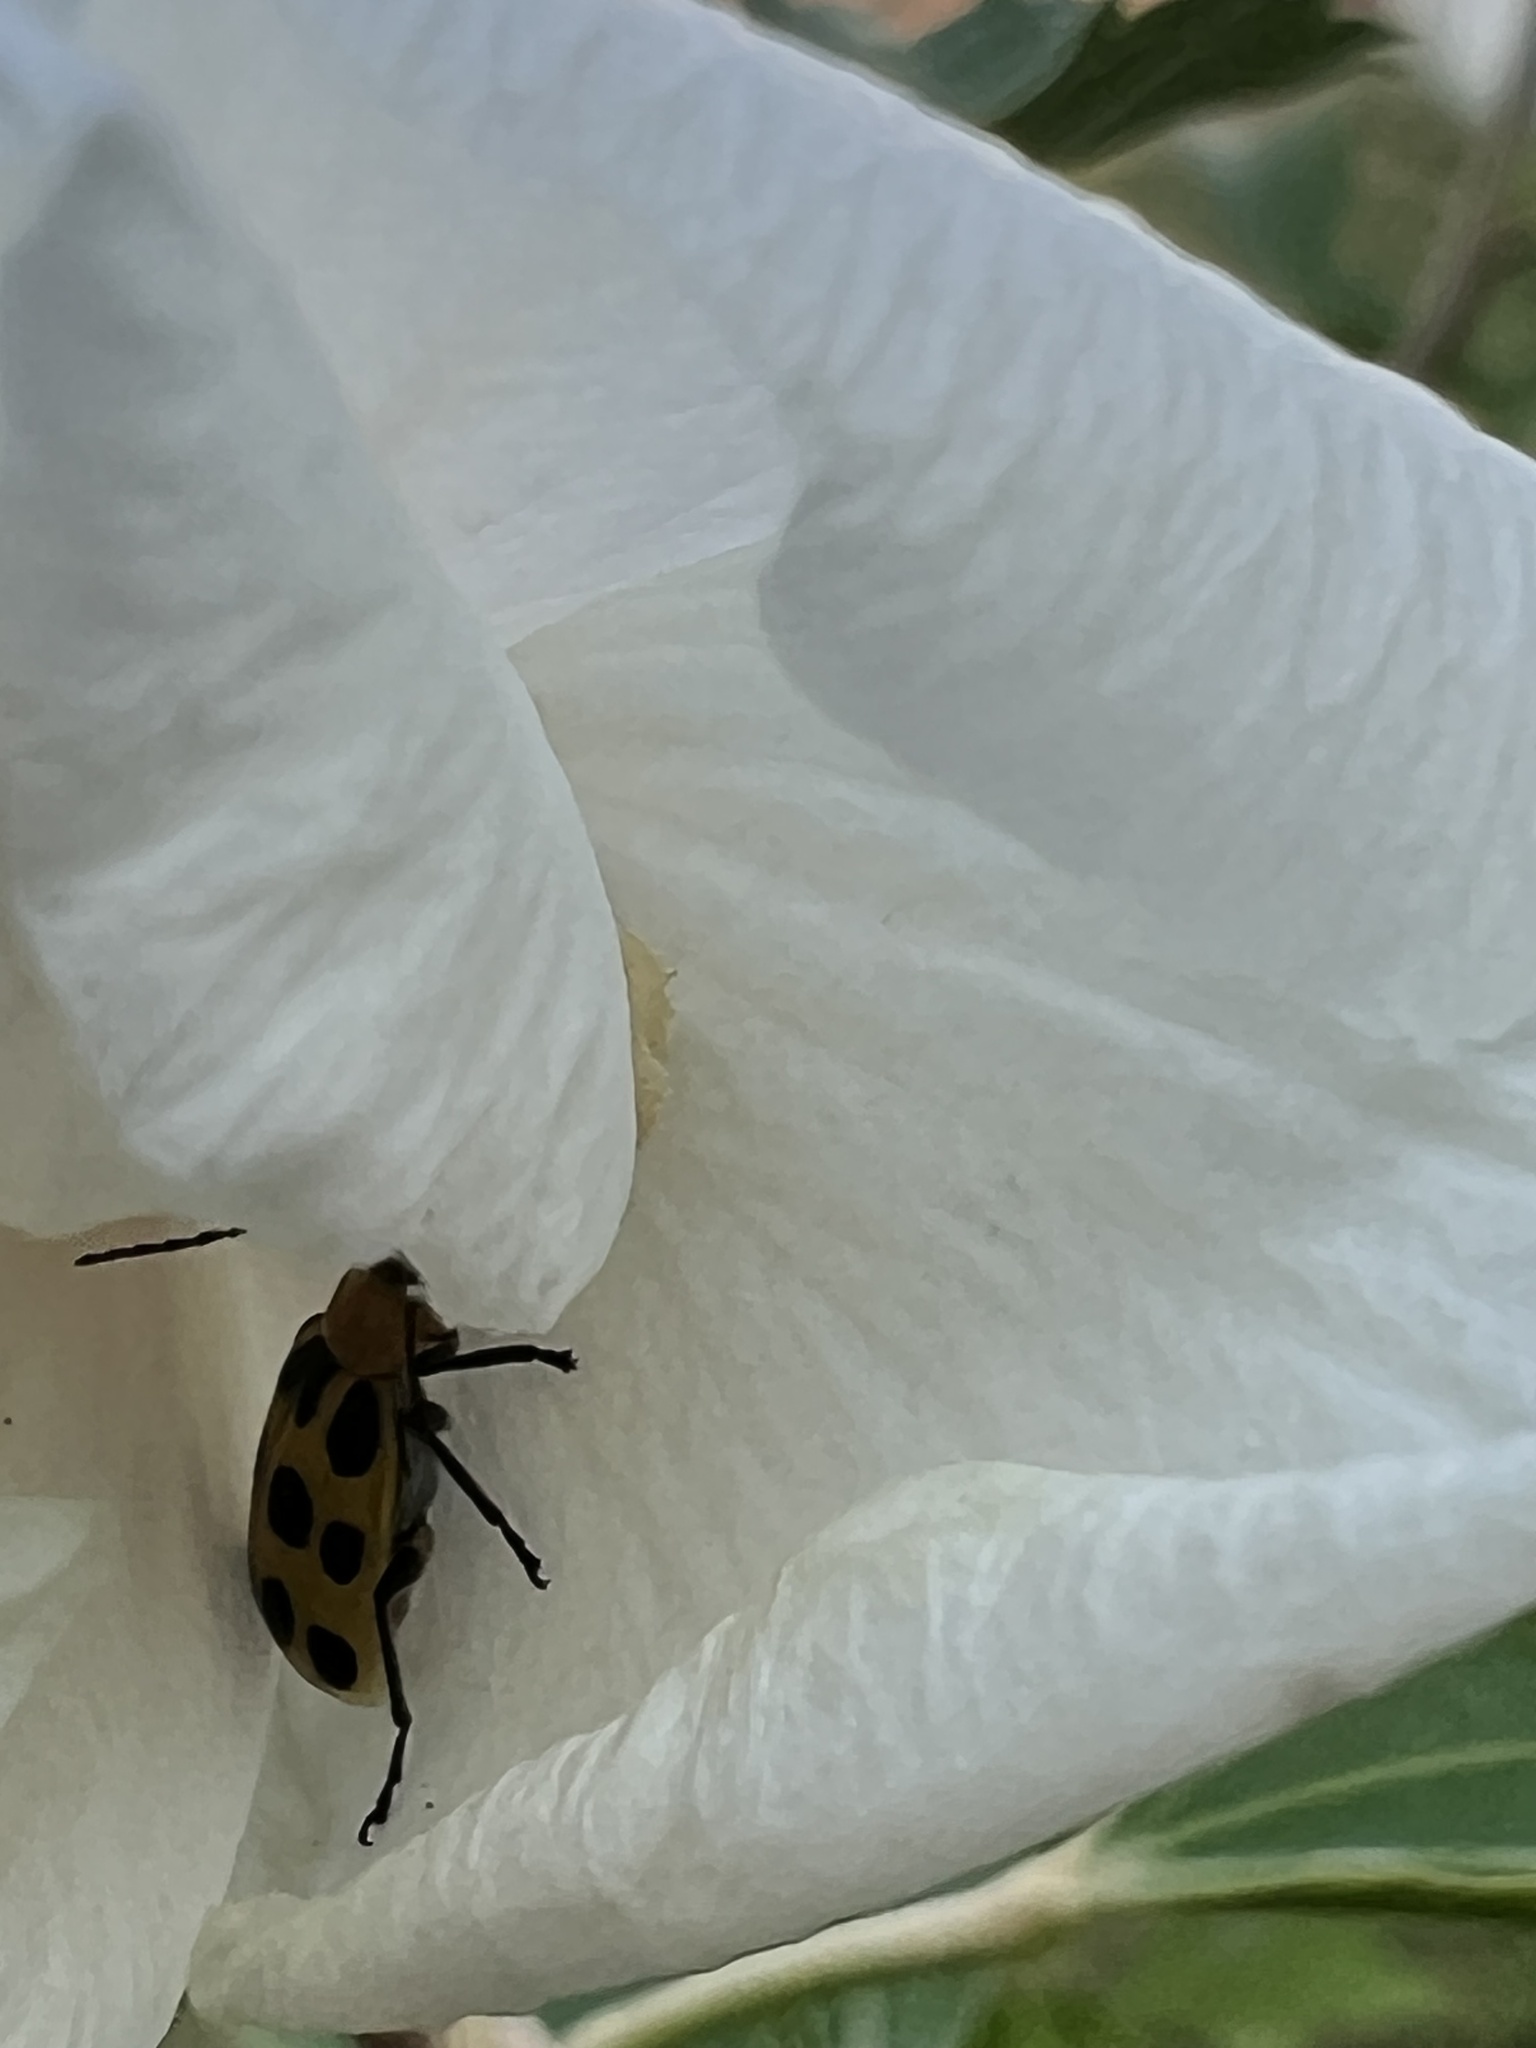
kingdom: Animalia
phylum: Arthropoda
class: Insecta
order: Coleoptera
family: Chrysomelidae
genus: Diabrotica
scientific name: Diabrotica undecimpunctata
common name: Spotted cucumber beetle
